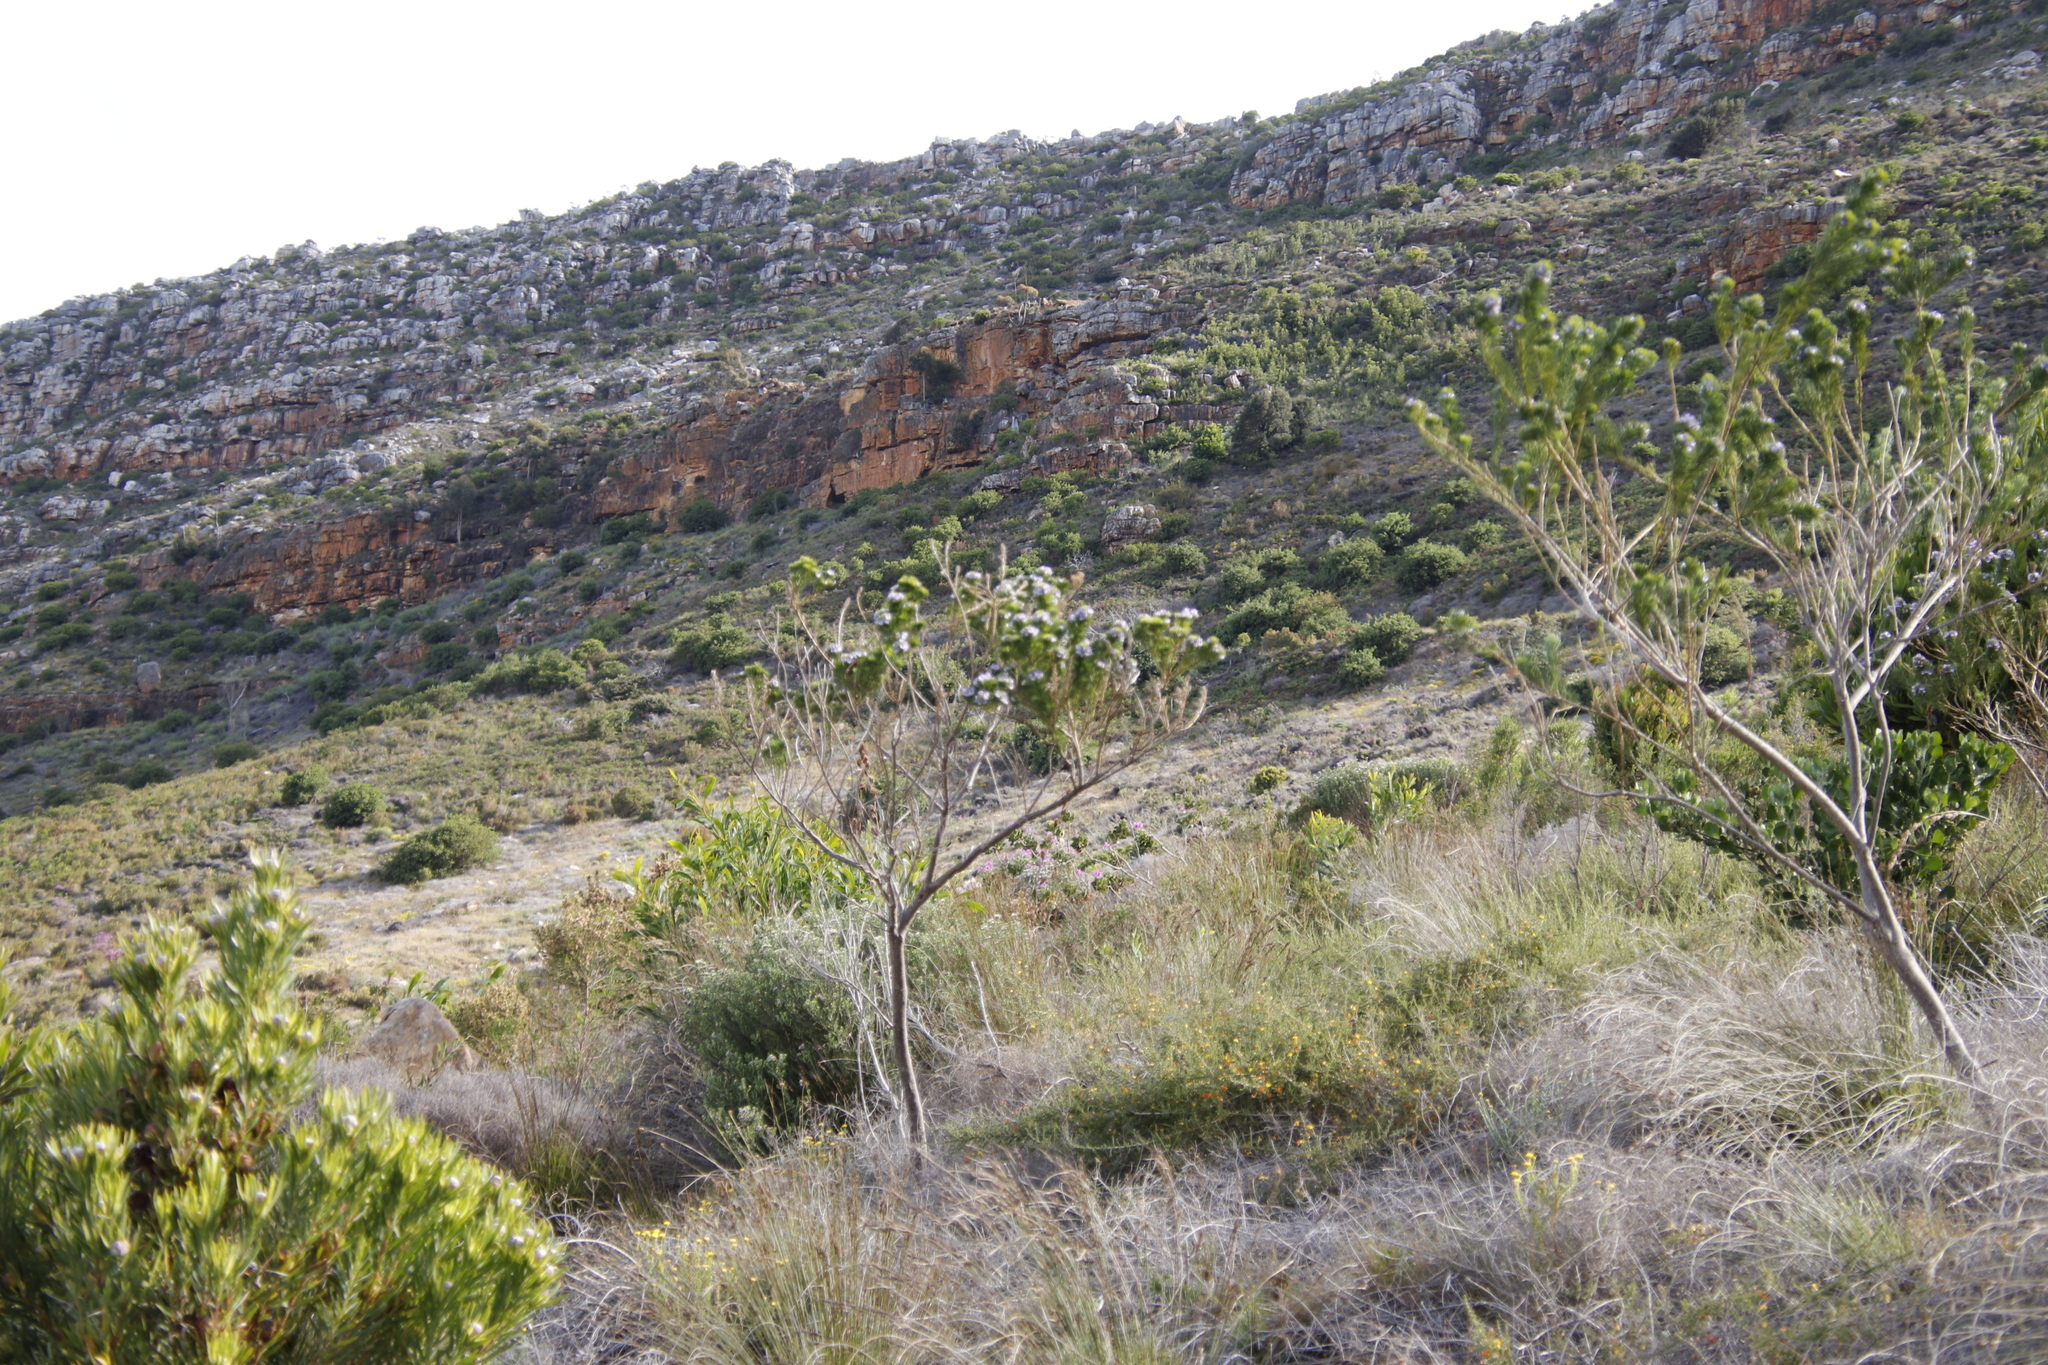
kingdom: Plantae
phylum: Tracheophyta
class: Magnoliopsida
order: Fabales
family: Fabaceae
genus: Psoralea
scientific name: Psoralea pinnata
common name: African scurfpea
